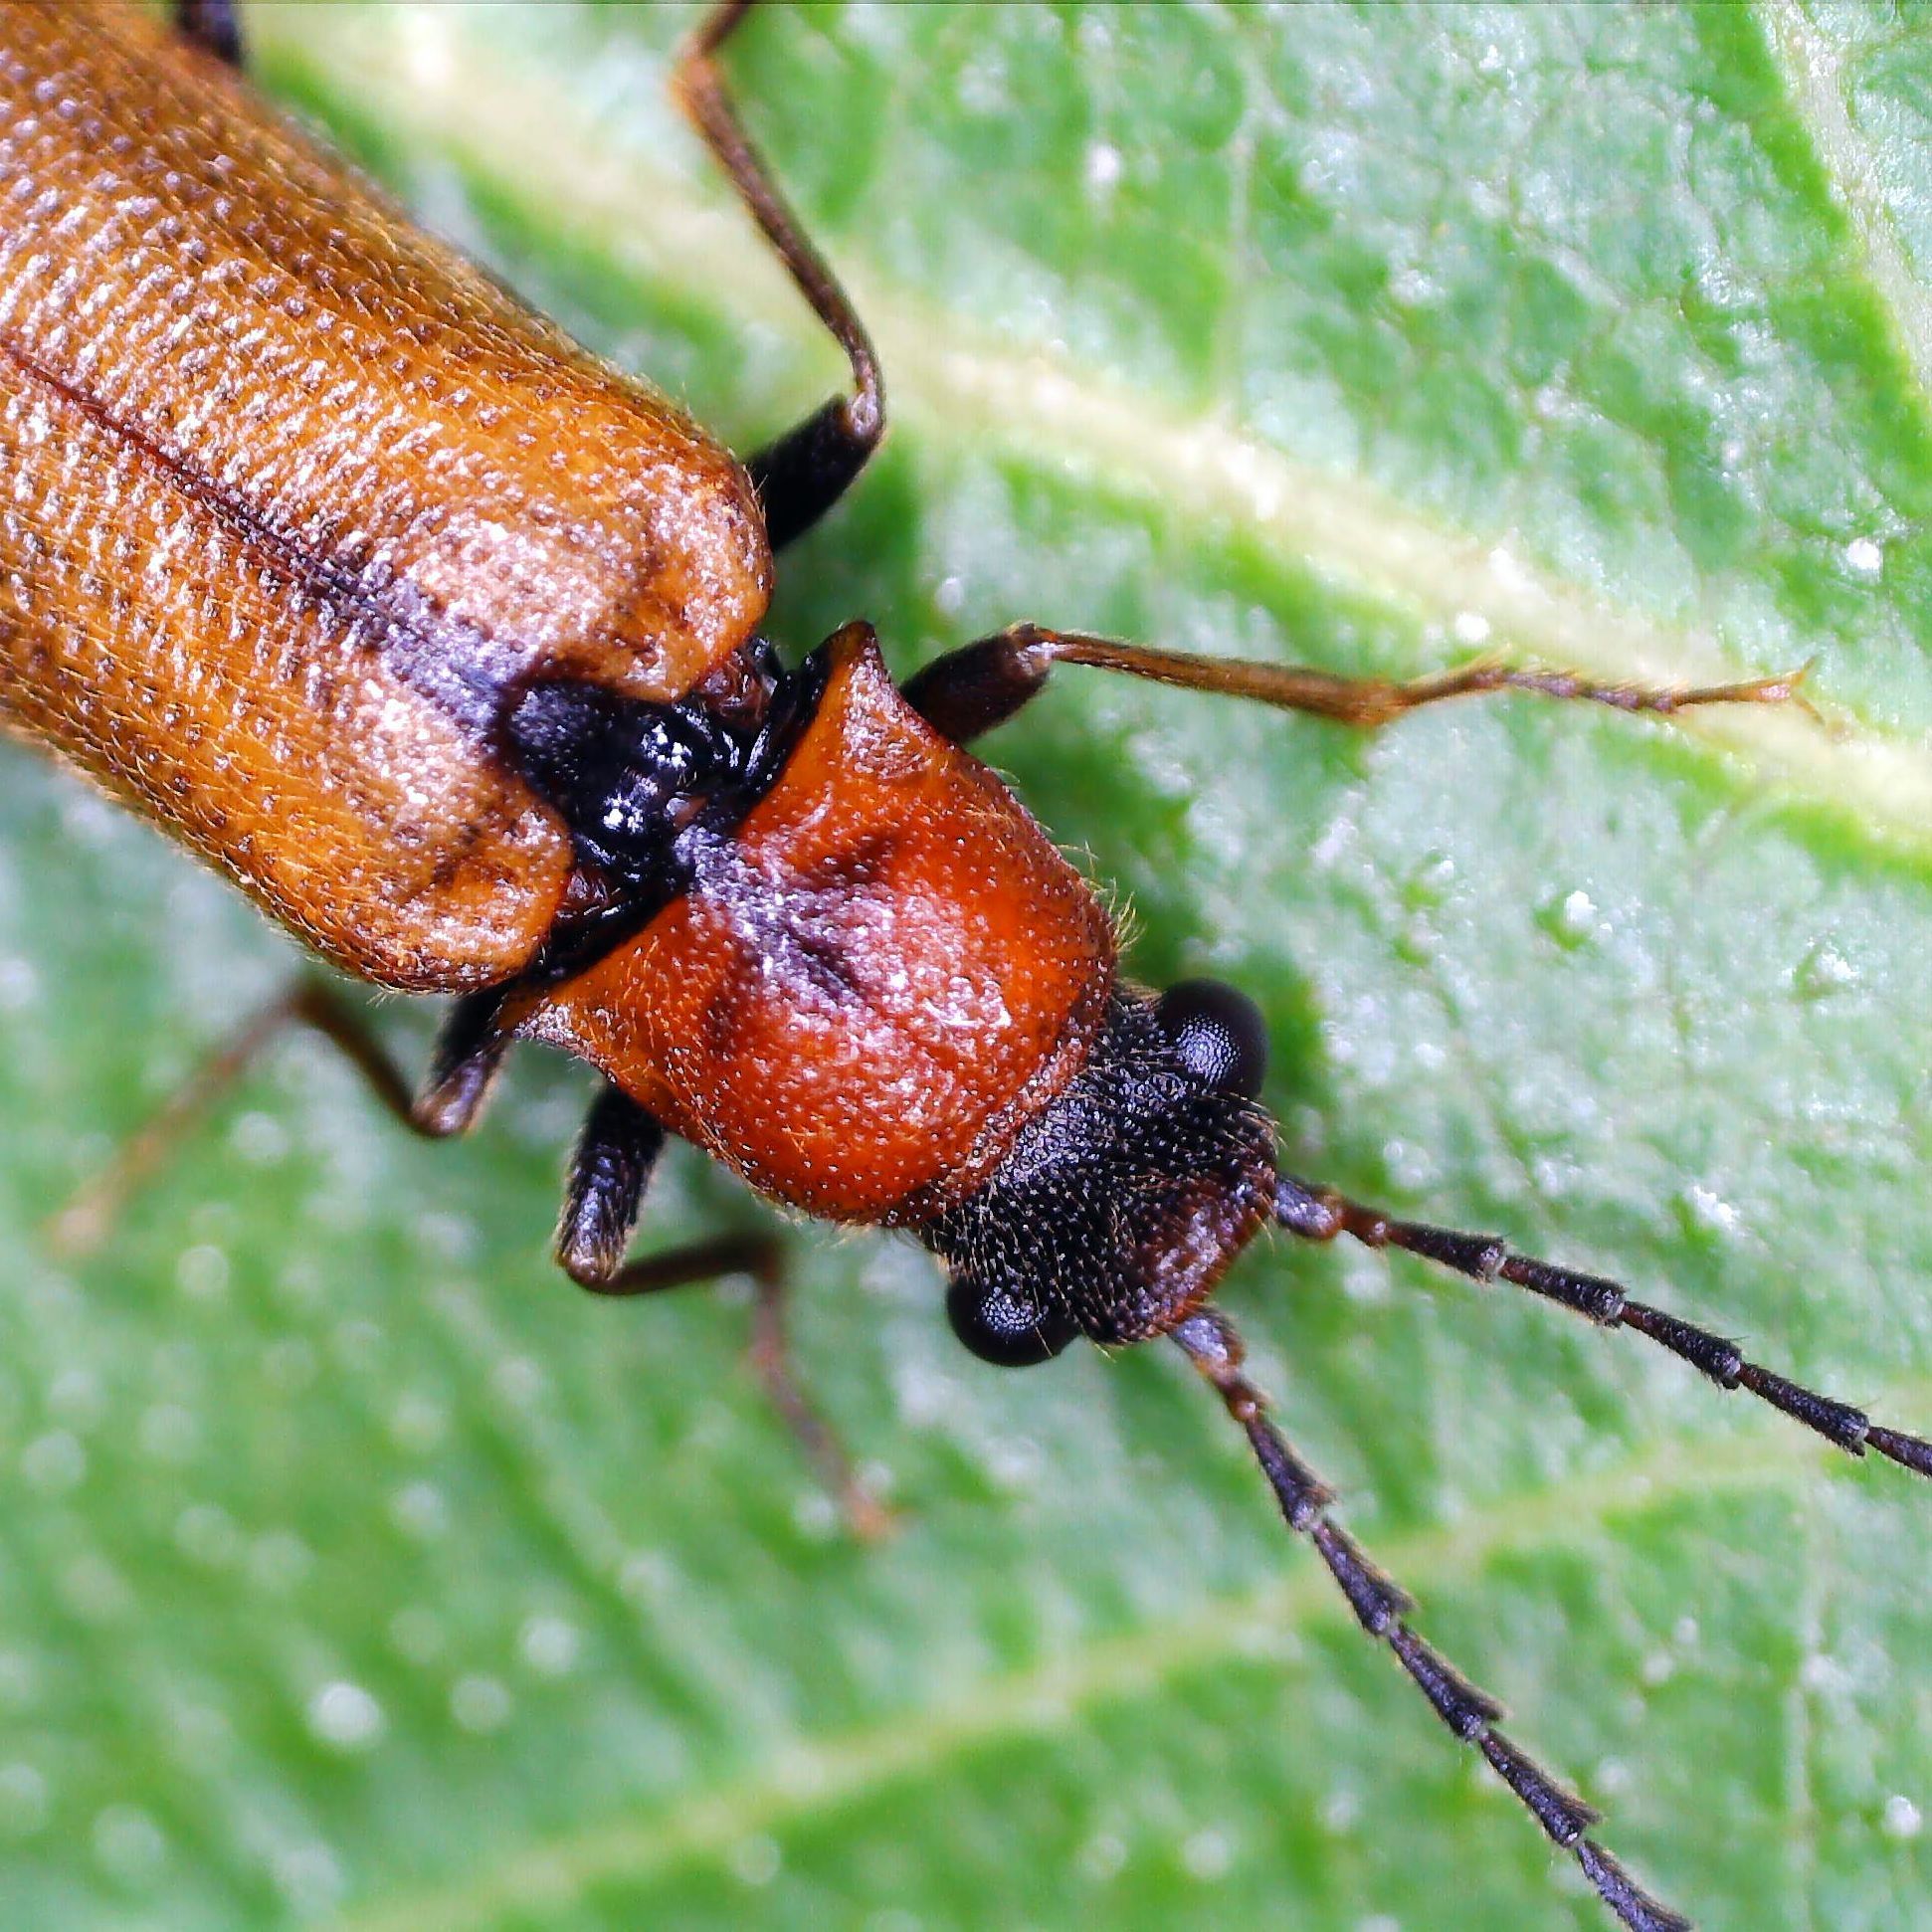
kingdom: Animalia
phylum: Arthropoda
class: Insecta
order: Coleoptera
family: Elateridae
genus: Denticollis
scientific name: Denticollis linearis
